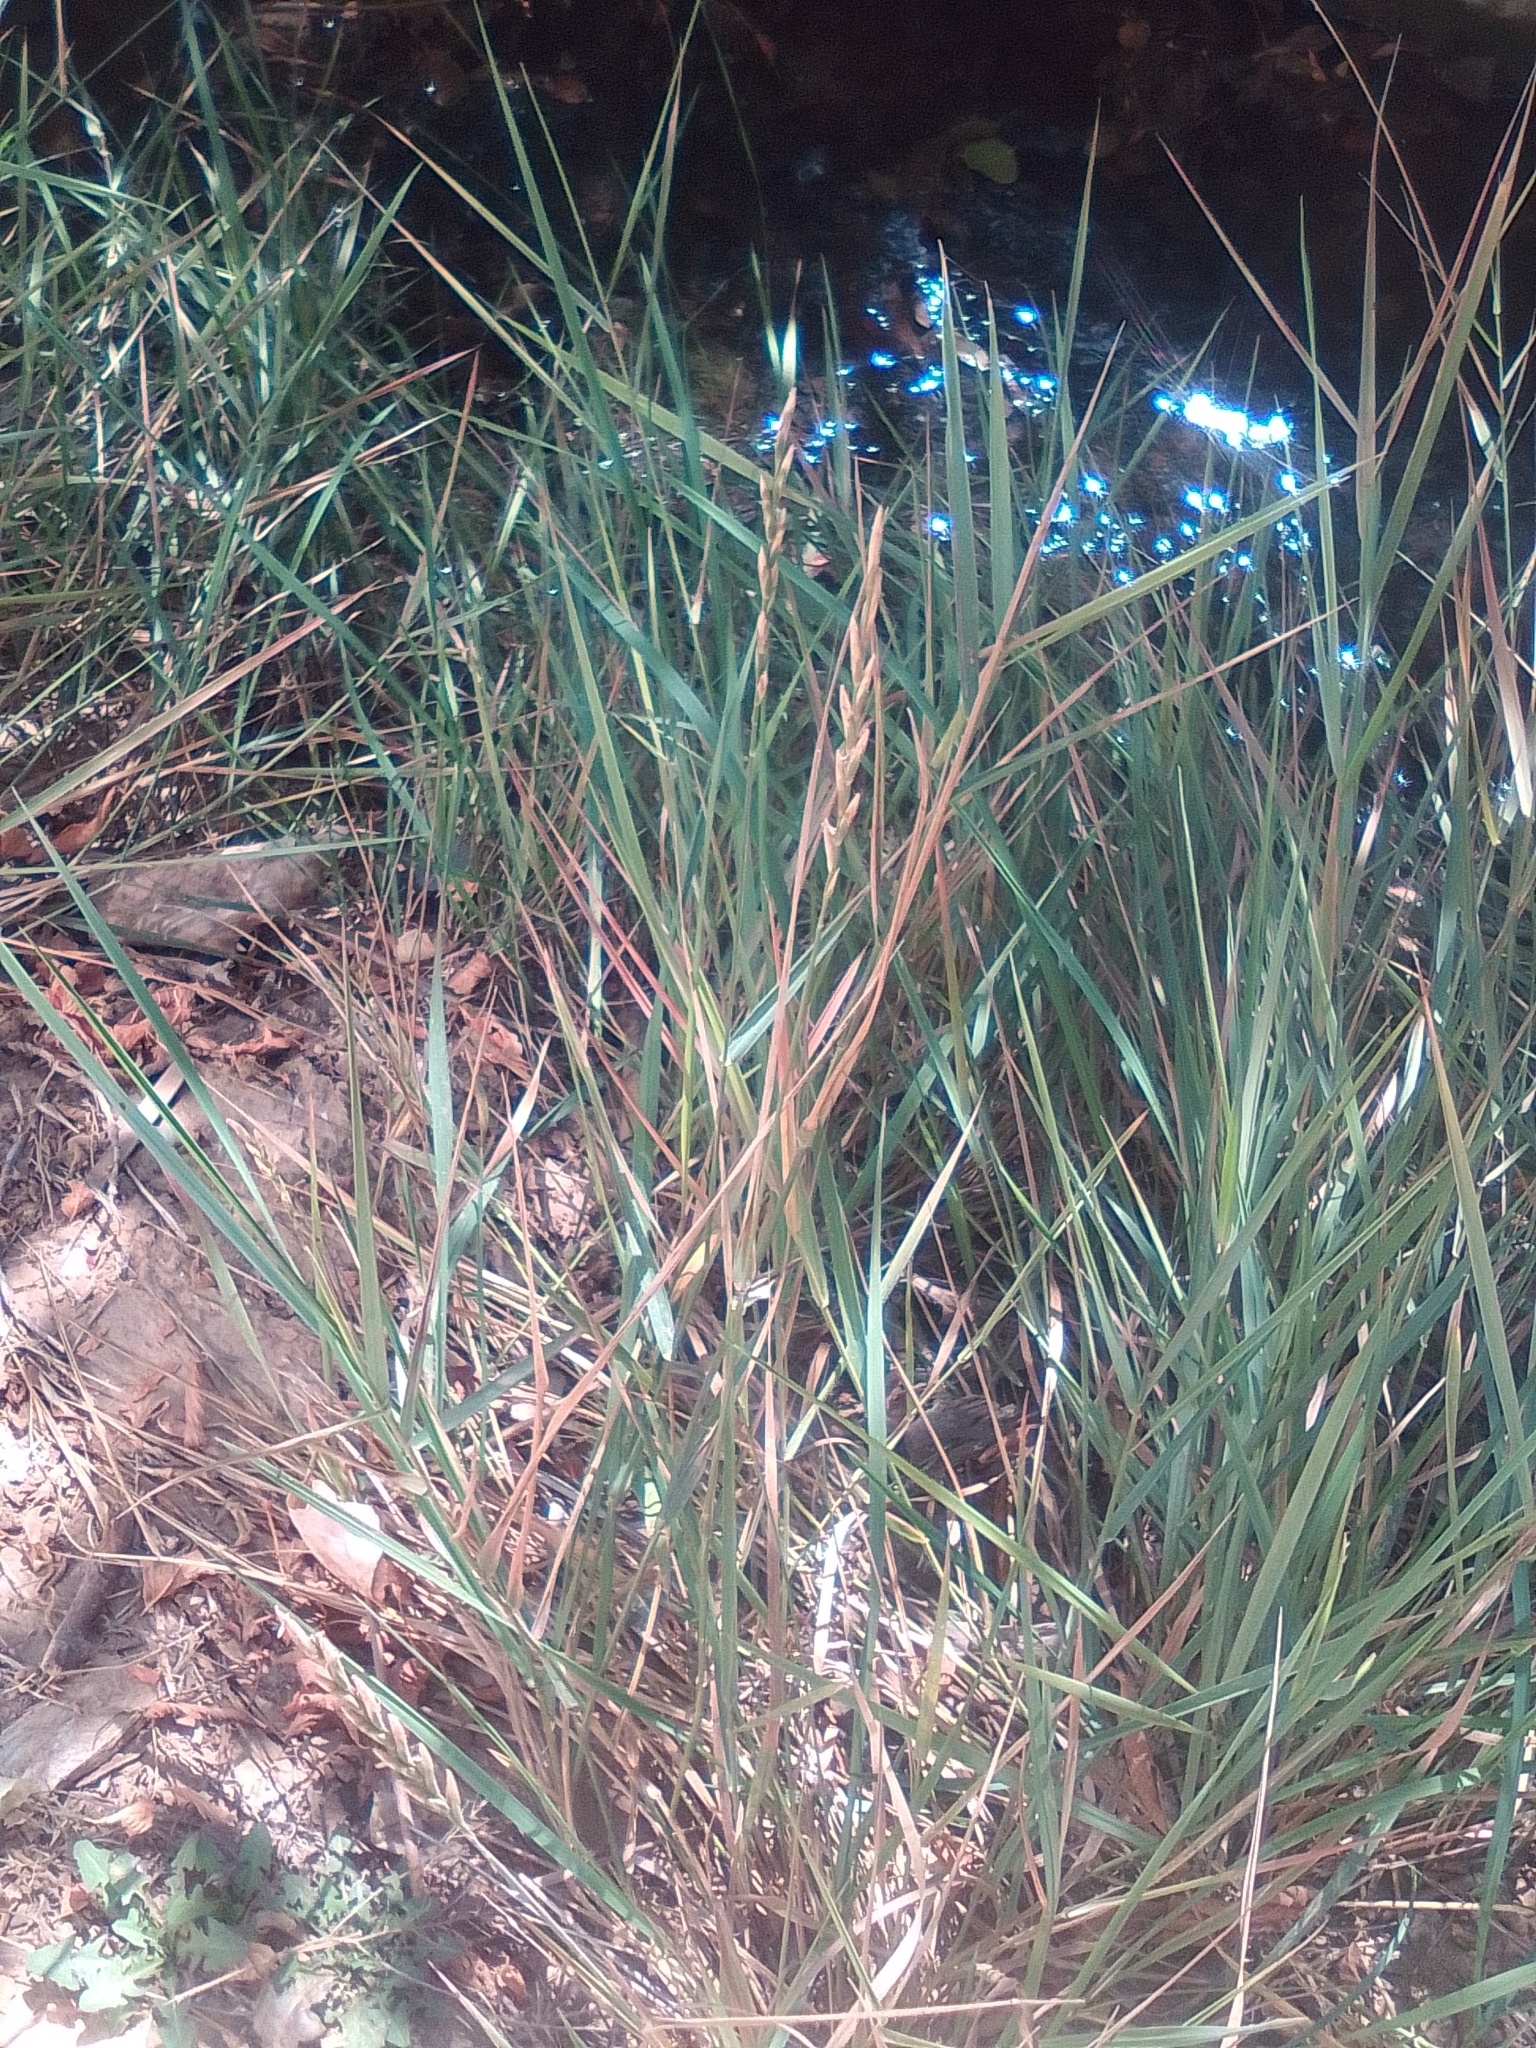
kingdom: Plantae
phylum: Tracheophyta
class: Liliopsida
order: Poales
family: Poaceae
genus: Elymus
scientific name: Elymus repens
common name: Quackgrass
